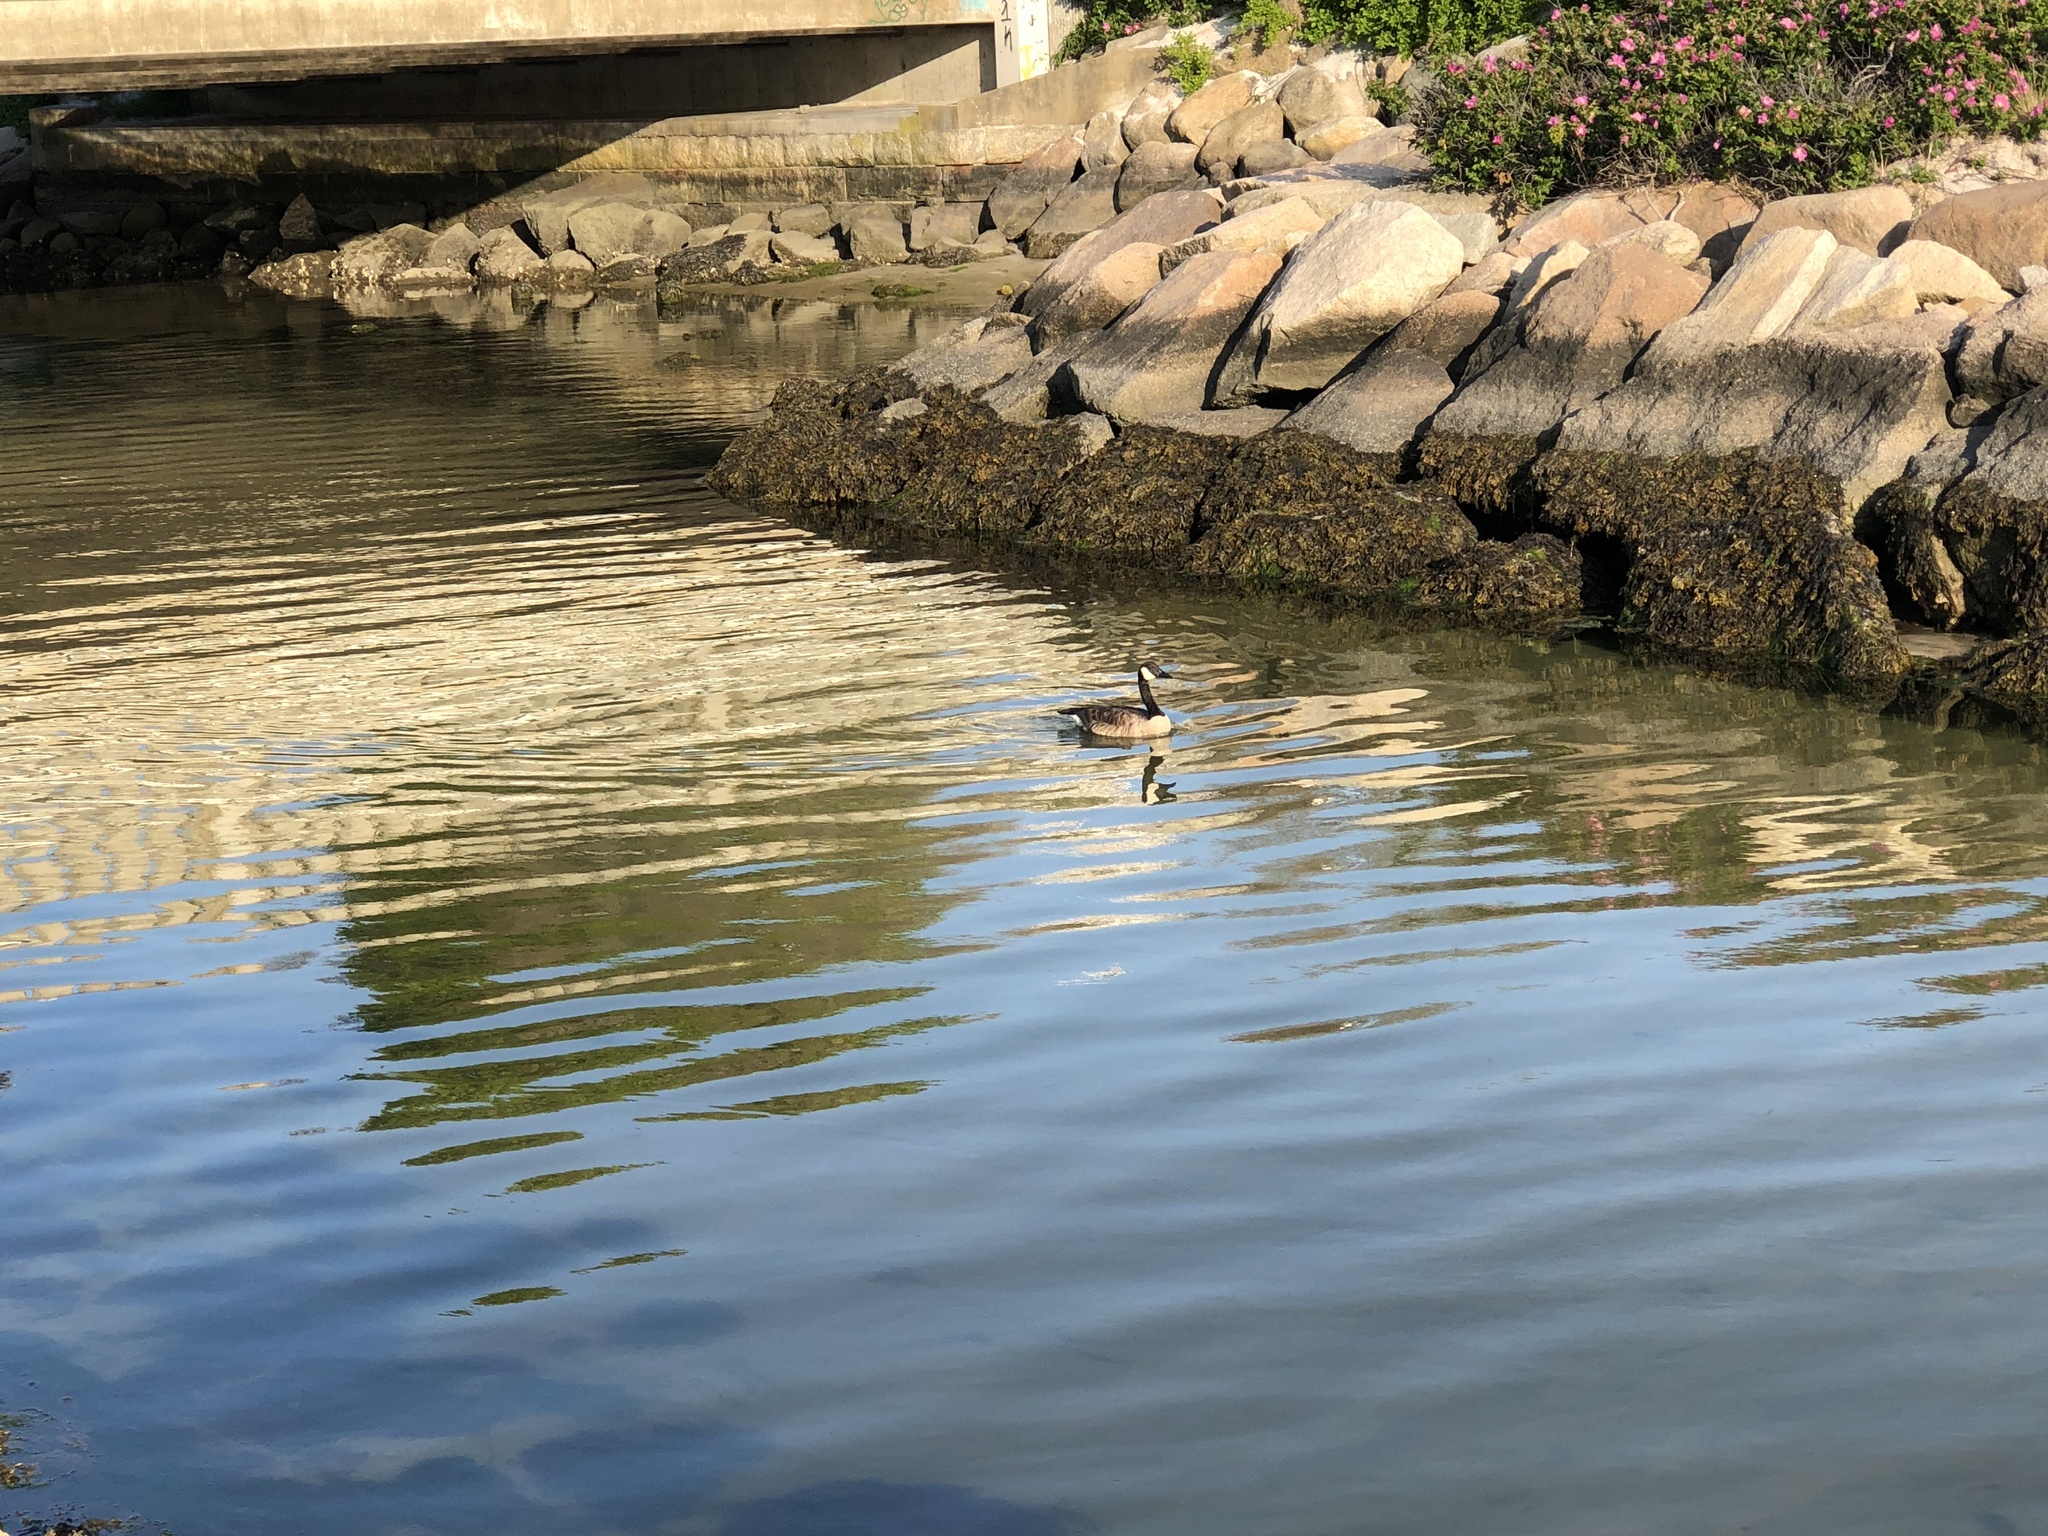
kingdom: Animalia
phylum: Chordata
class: Aves
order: Anseriformes
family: Anatidae
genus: Branta
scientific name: Branta canadensis
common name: Canada goose
